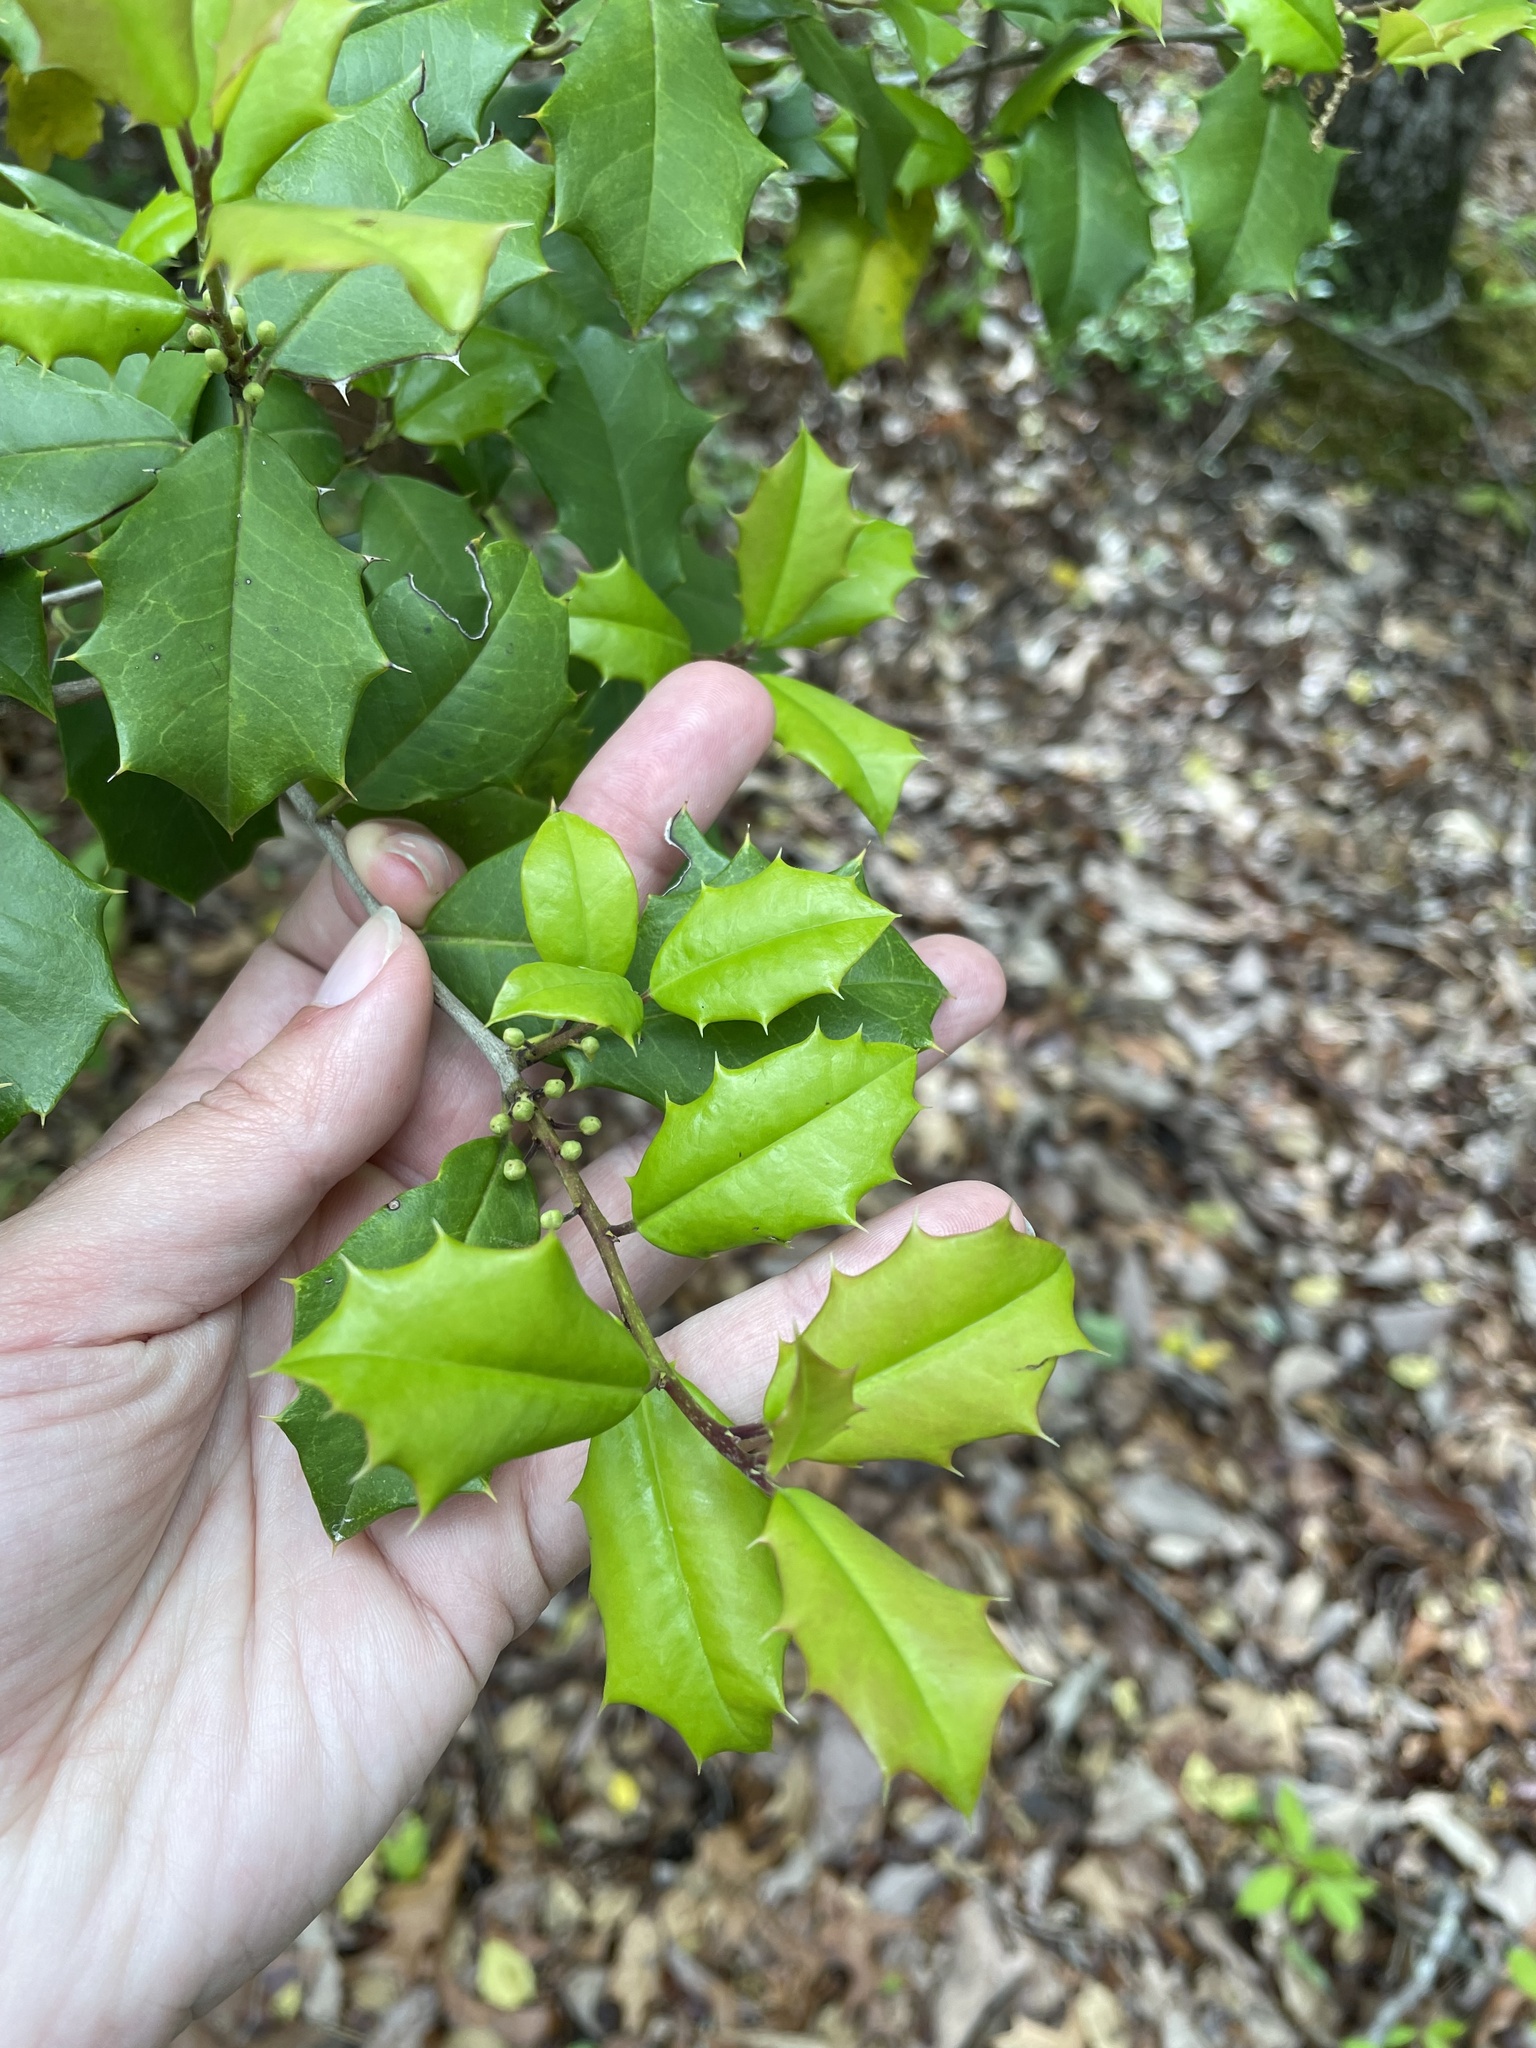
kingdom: Plantae
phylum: Tracheophyta
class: Magnoliopsida
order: Aquifoliales
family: Aquifoliaceae
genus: Ilex
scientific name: Ilex opaca
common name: American holly
